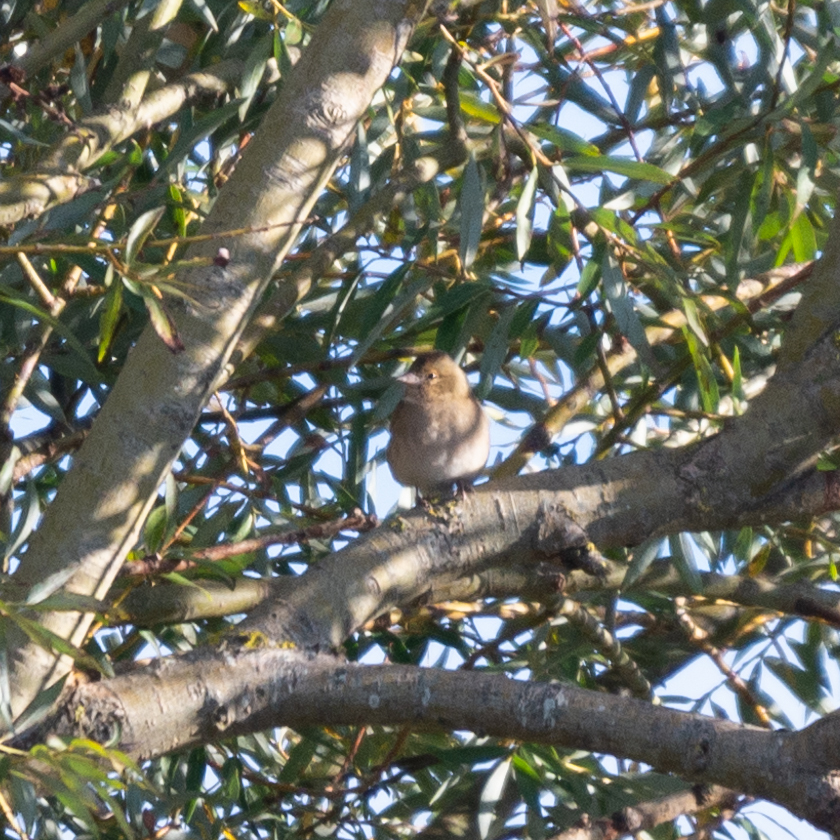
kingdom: Animalia
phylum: Chordata
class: Aves
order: Passeriformes
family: Fringillidae
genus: Fringilla
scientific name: Fringilla coelebs
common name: Common chaffinch
